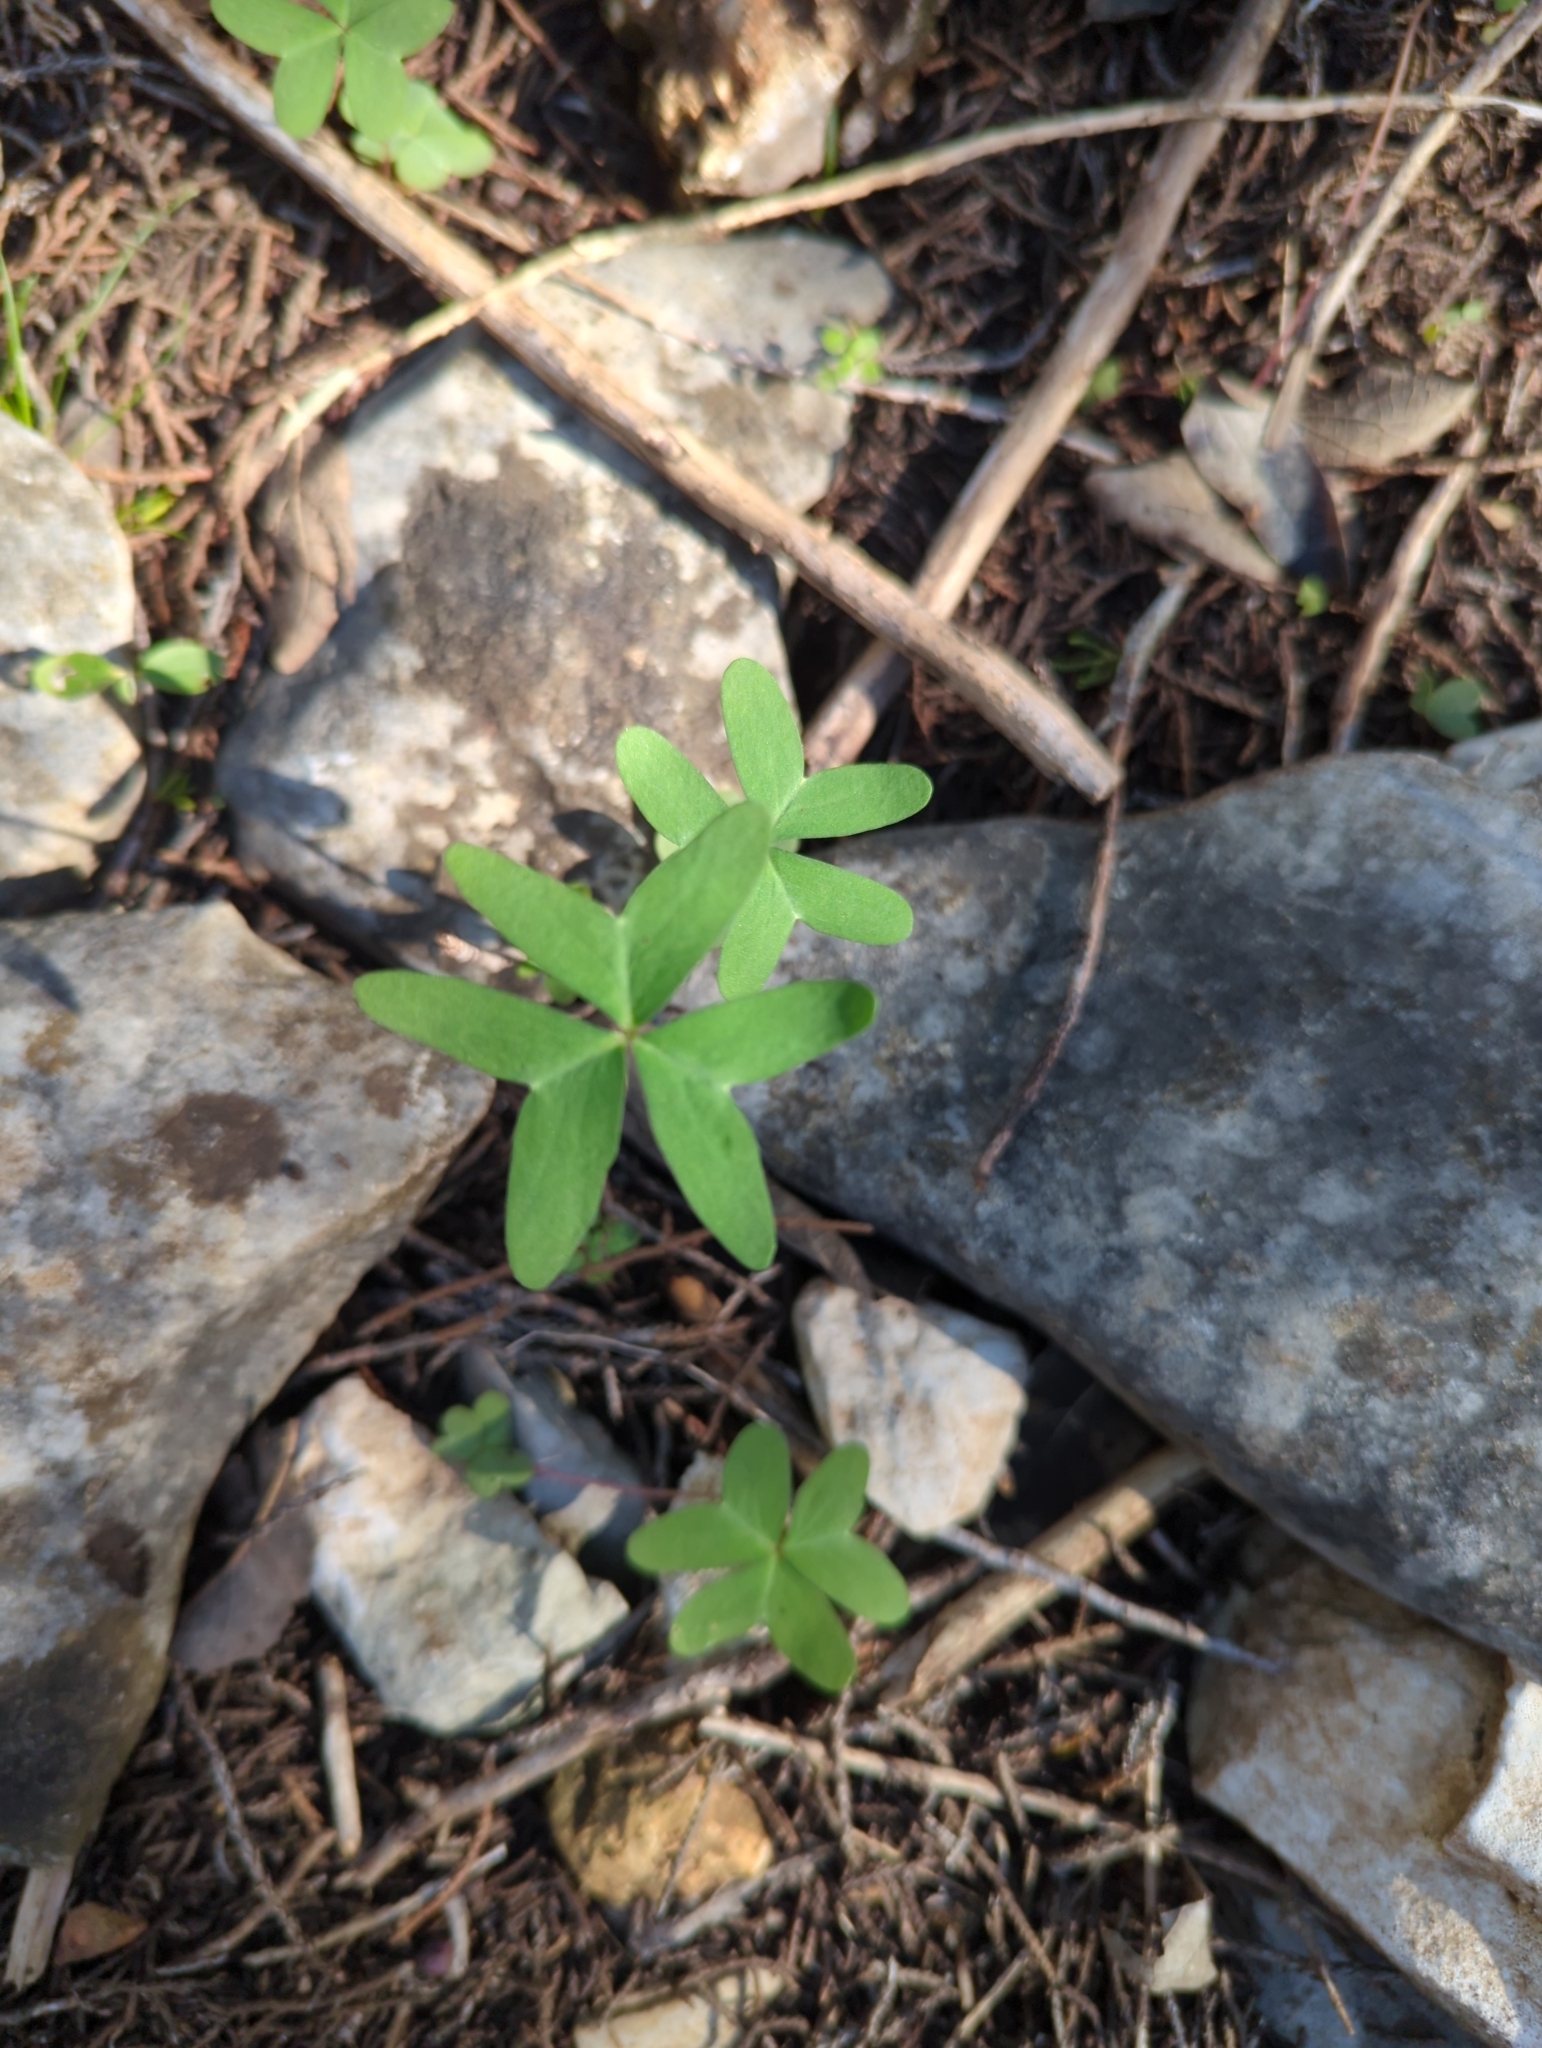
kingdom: Plantae
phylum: Tracheophyta
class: Magnoliopsida
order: Oxalidales
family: Oxalidaceae
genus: Oxalis
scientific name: Oxalis drummondii
